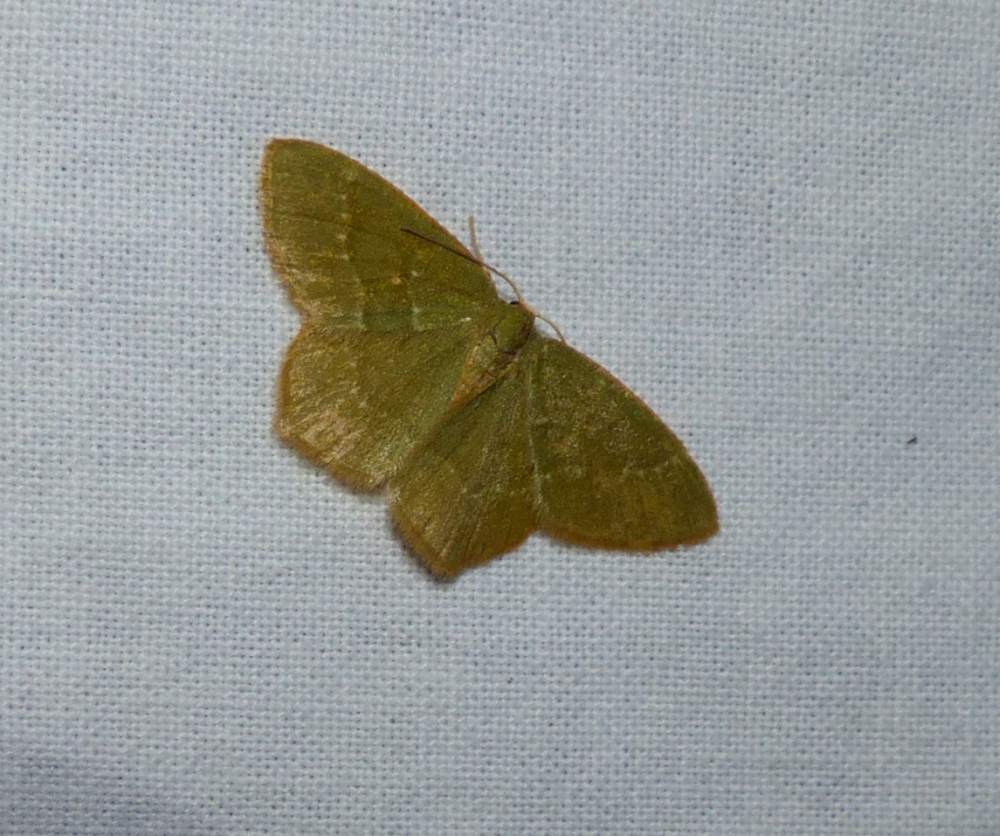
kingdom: Animalia
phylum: Arthropoda
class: Insecta
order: Lepidoptera
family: Geometridae
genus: Thalera
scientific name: Thalera pistasciaria
